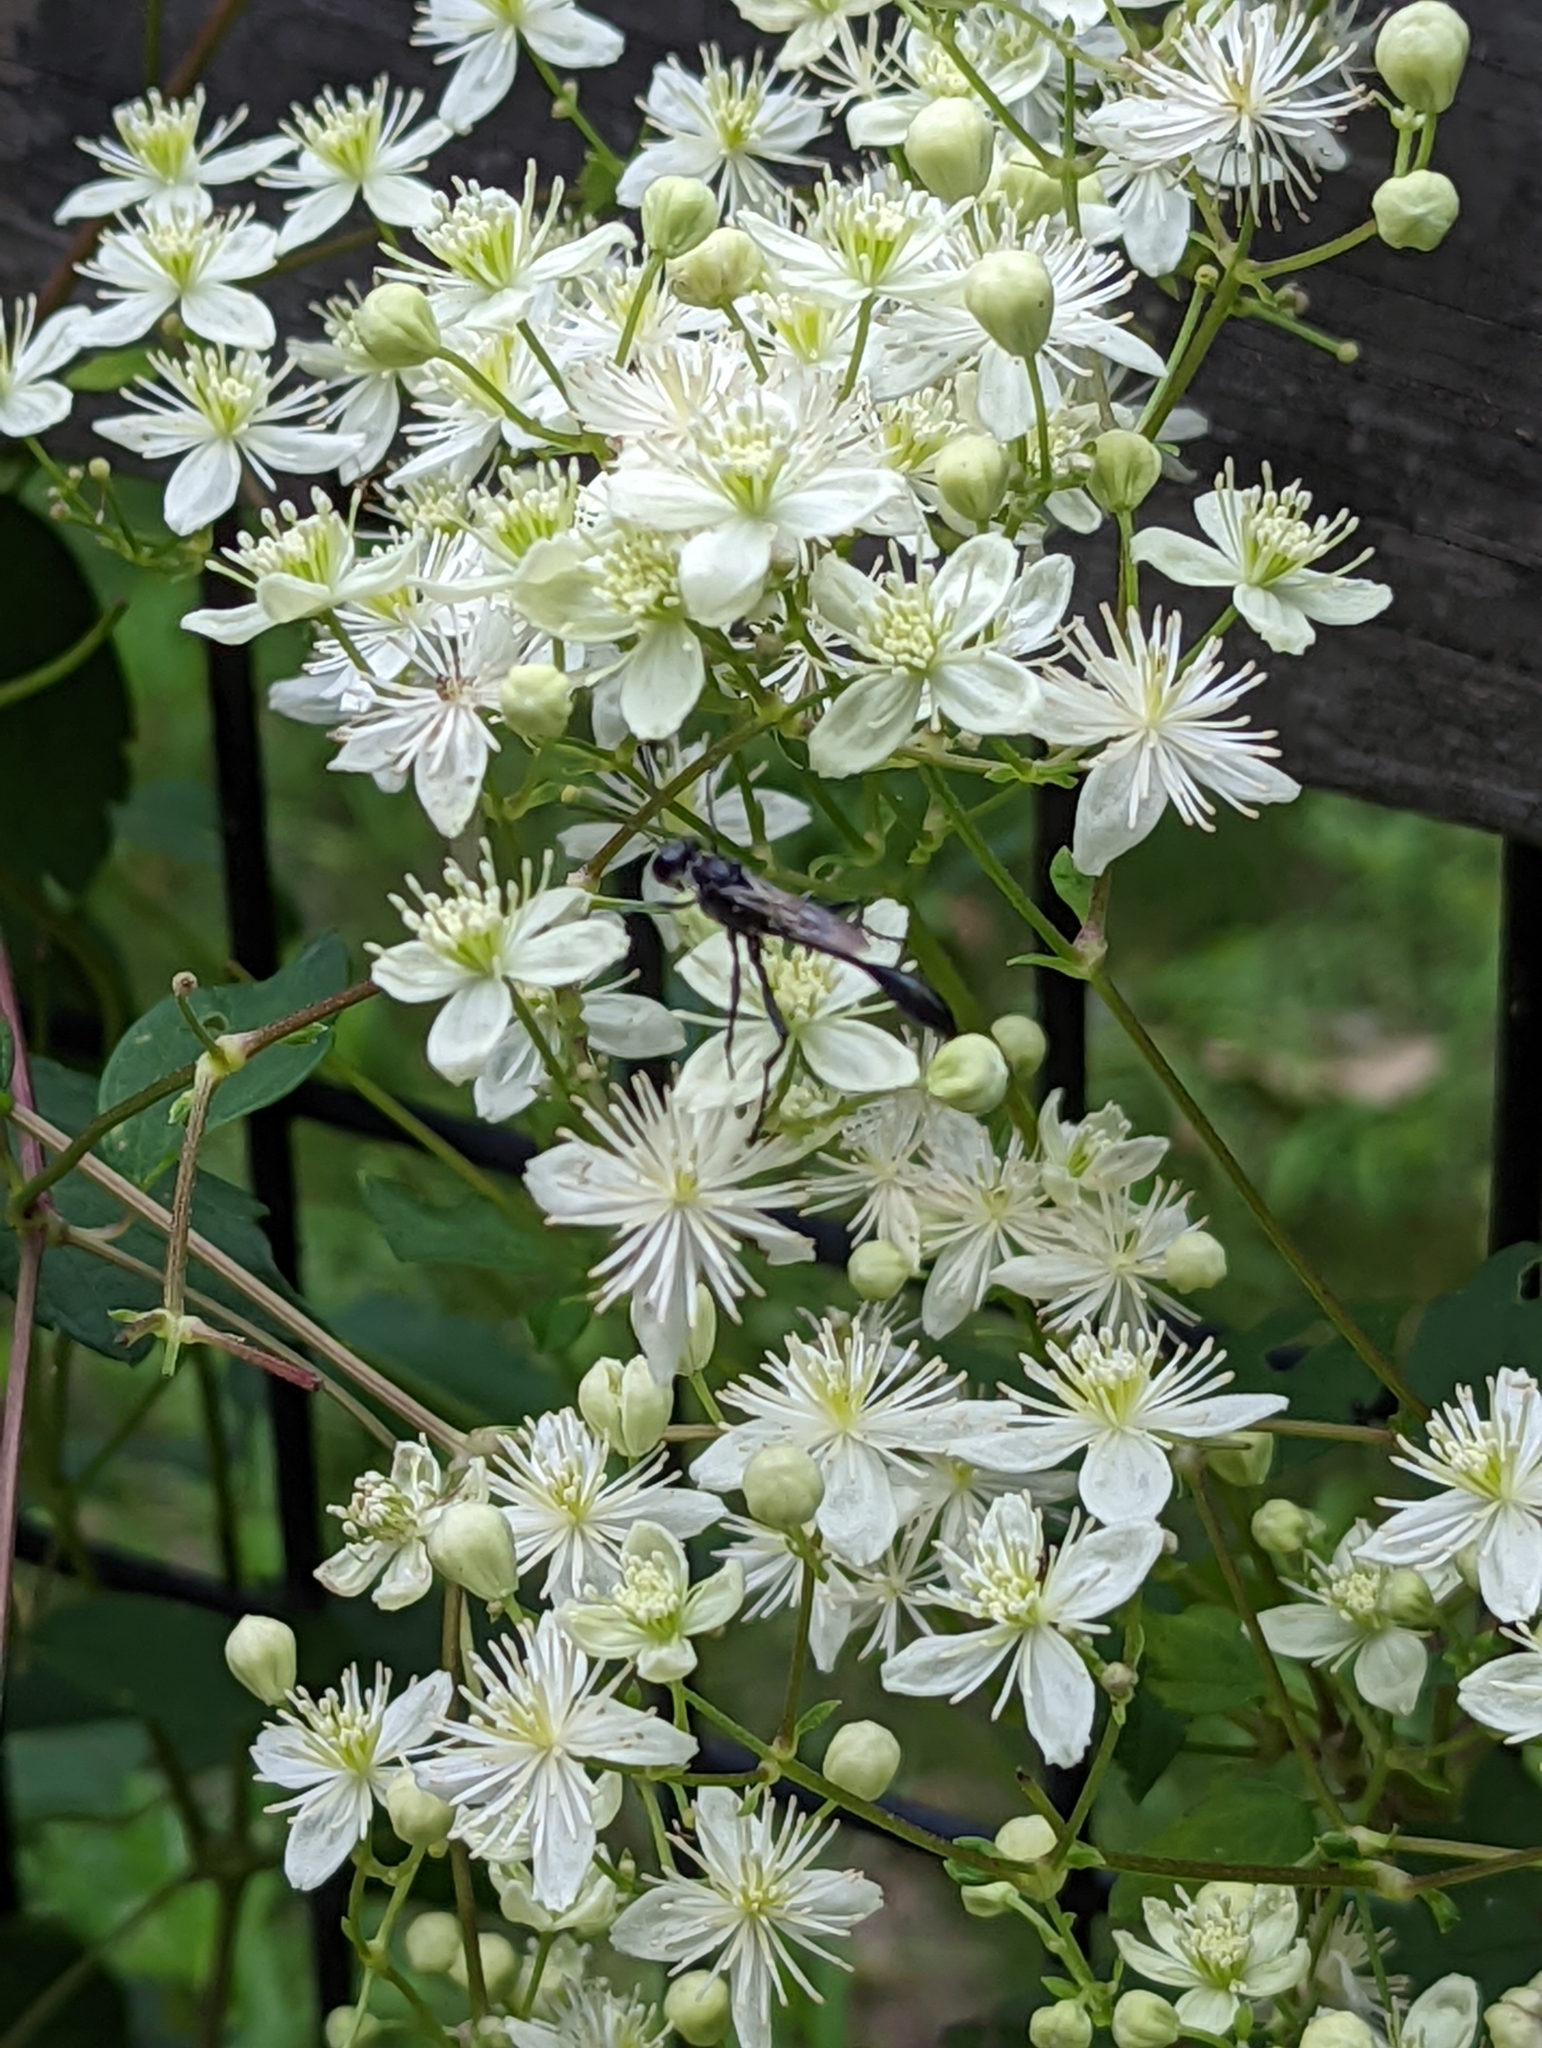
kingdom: Plantae
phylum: Tracheophyta
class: Magnoliopsida
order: Ranunculales
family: Ranunculaceae
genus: Clematis
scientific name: Clematis virginiana
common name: Virgin's-bower
